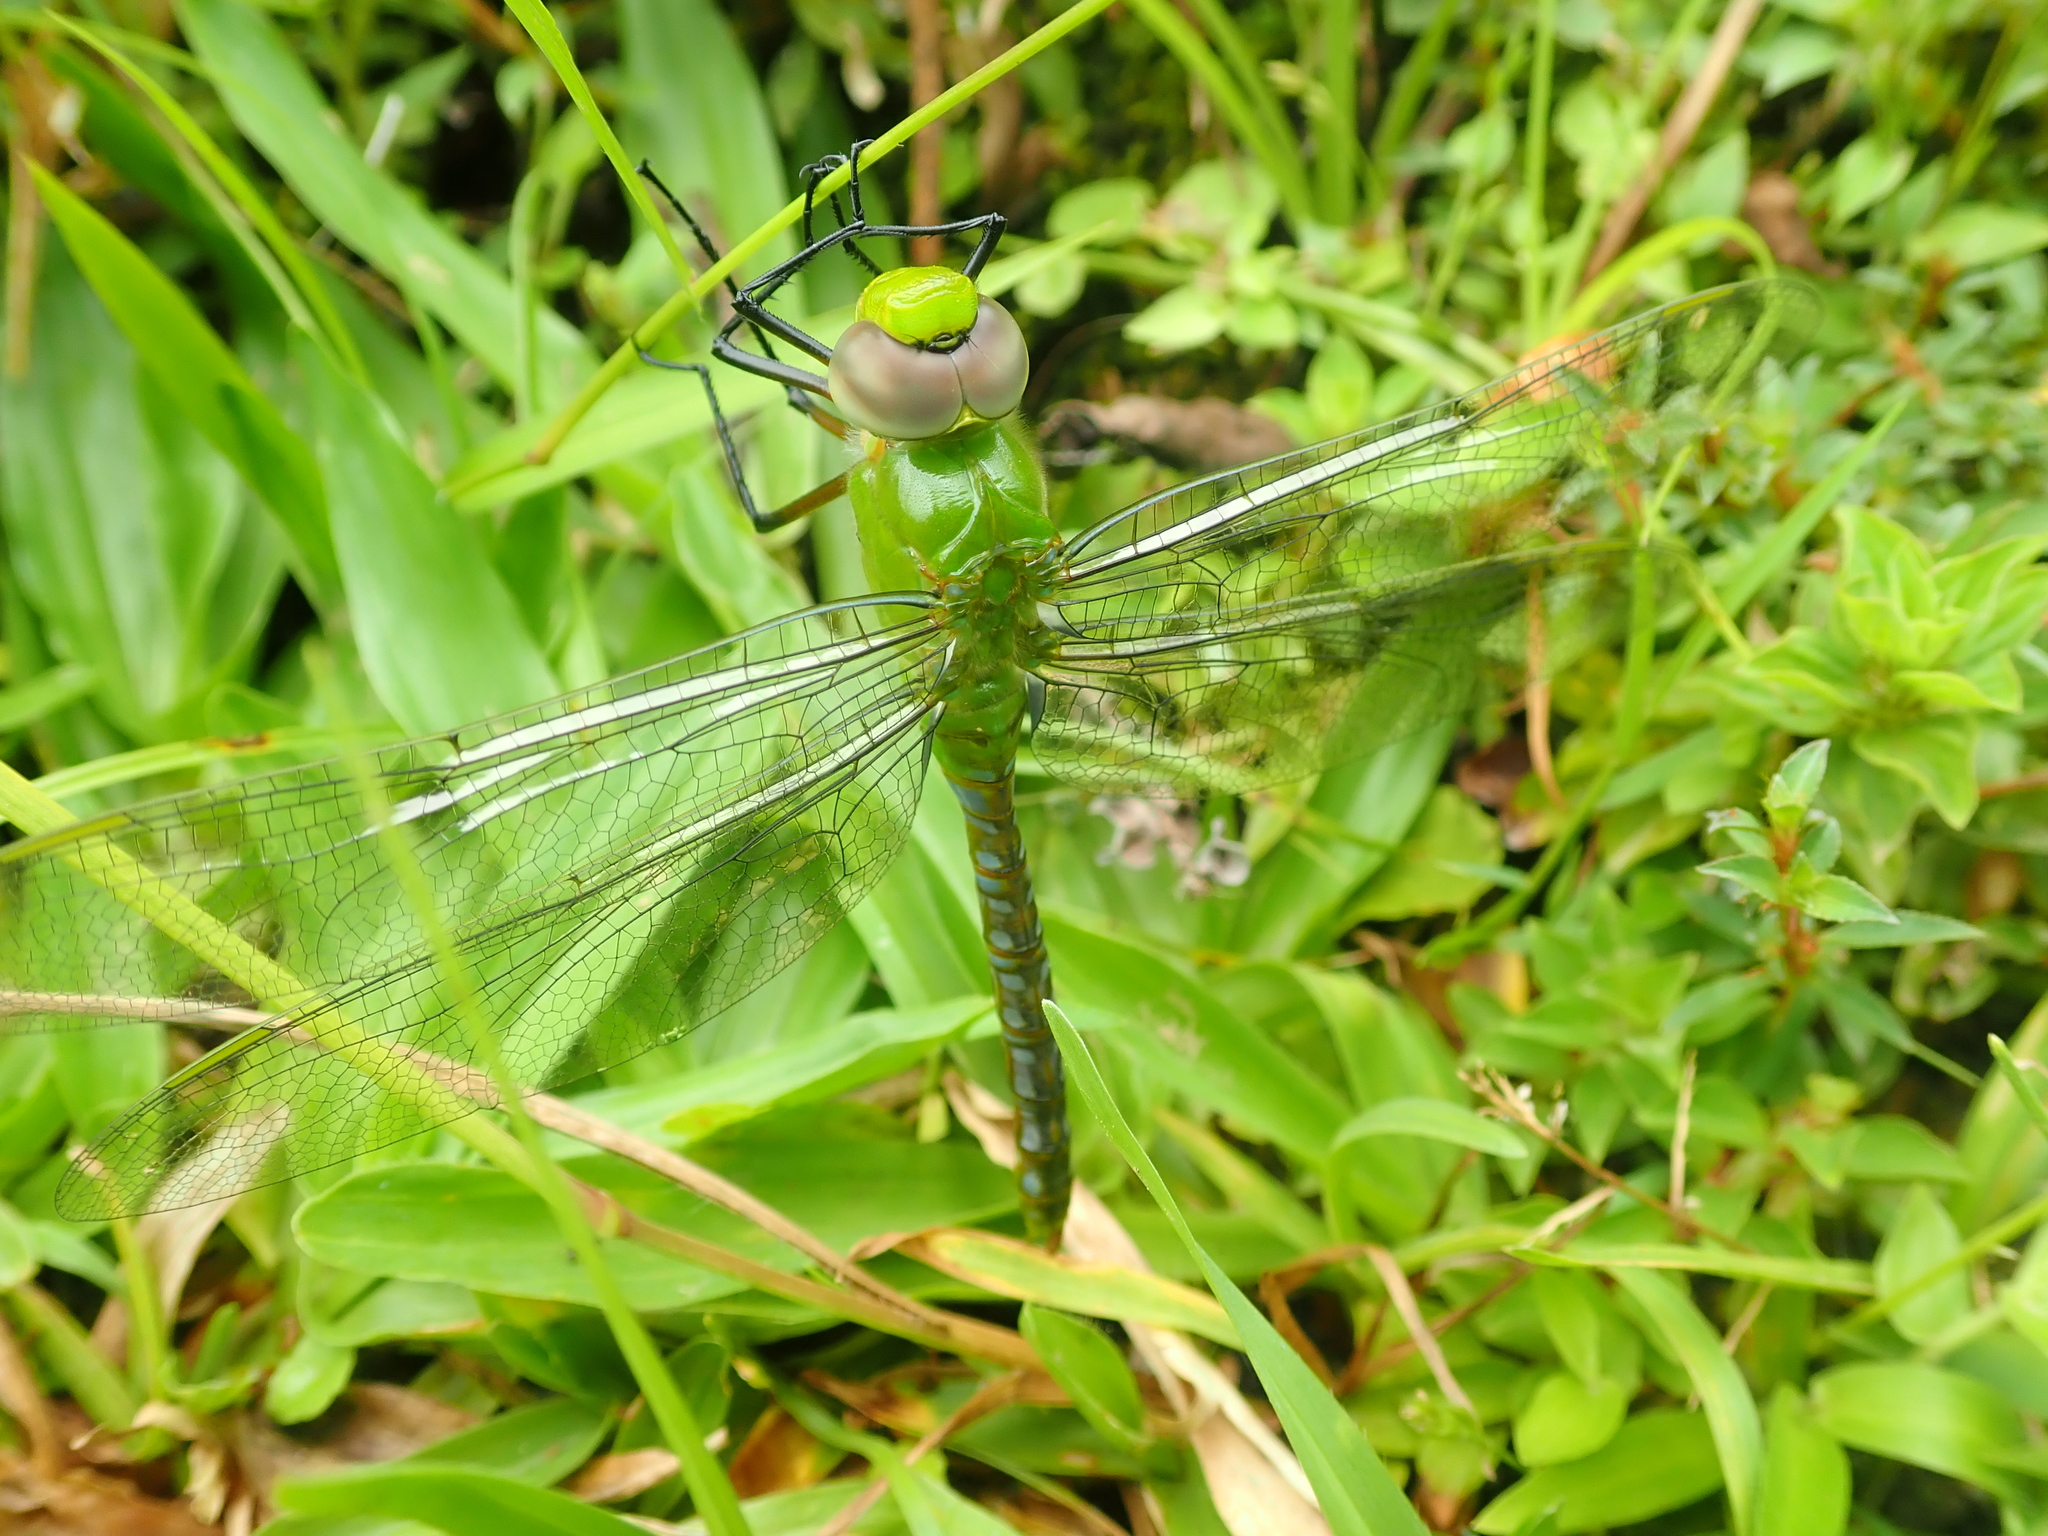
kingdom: Animalia
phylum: Arthropoda
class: Insecta
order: Odonata
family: Aeshnidae
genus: Anax
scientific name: Anax concolor
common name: Blue-spotted comet darner
